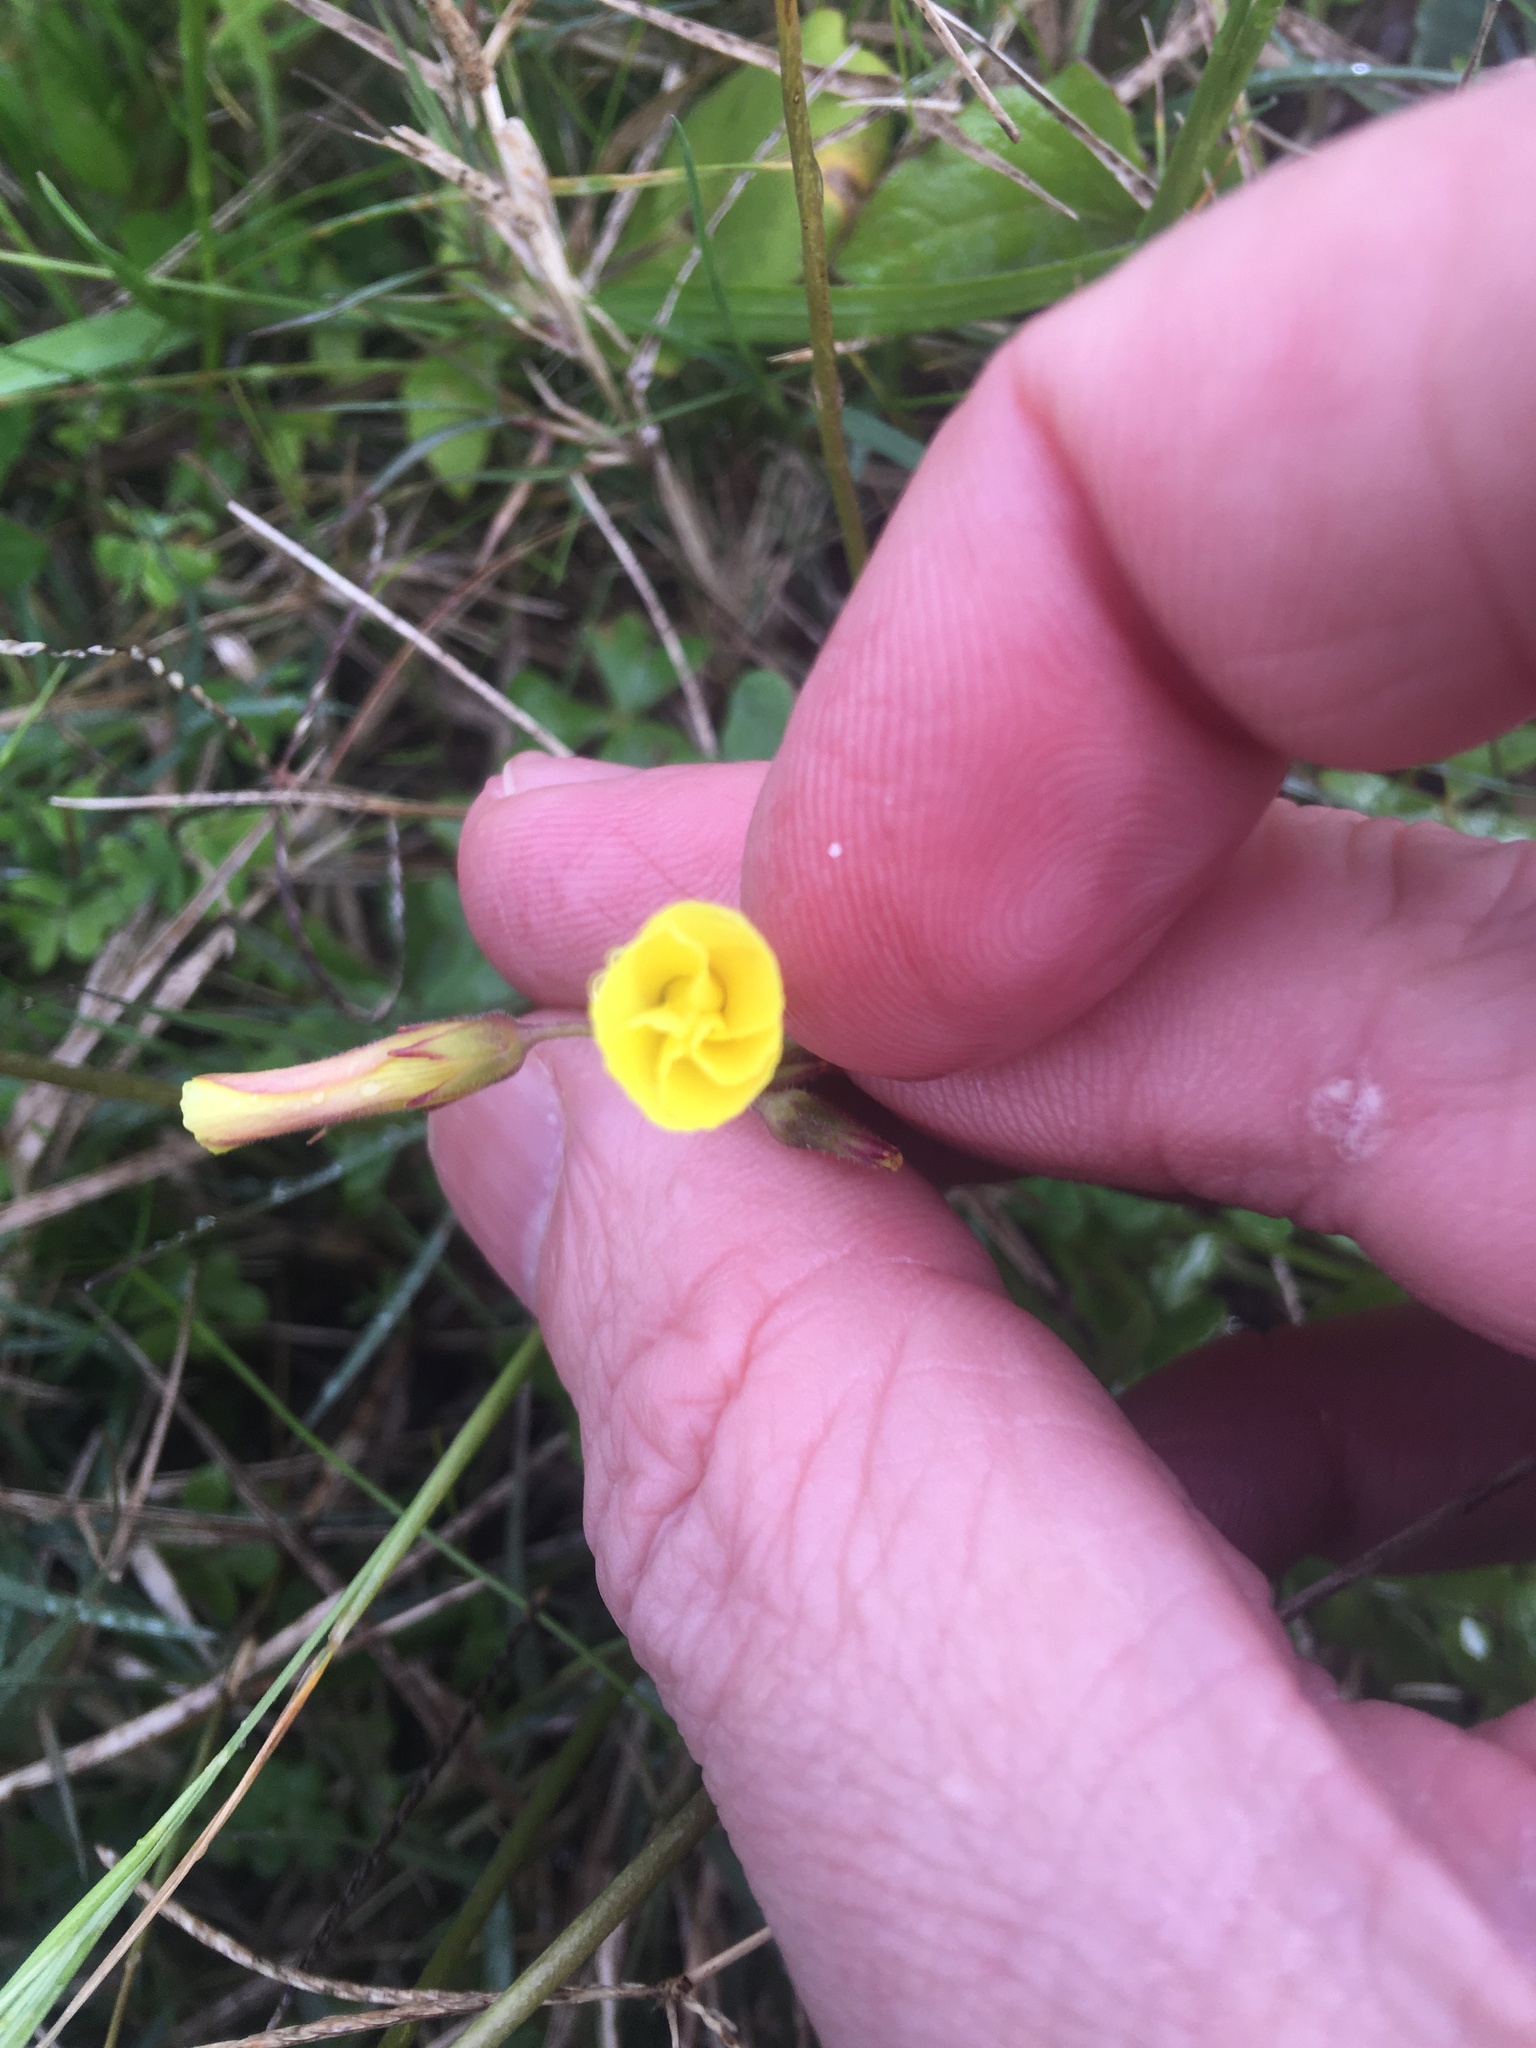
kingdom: Plantae
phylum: Tracheophyta
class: Magnoliopsida
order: Oxalidales
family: Oxalidaceae
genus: Oxalis
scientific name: Oxalis pes-caprae
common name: Bermuda-buttercup
